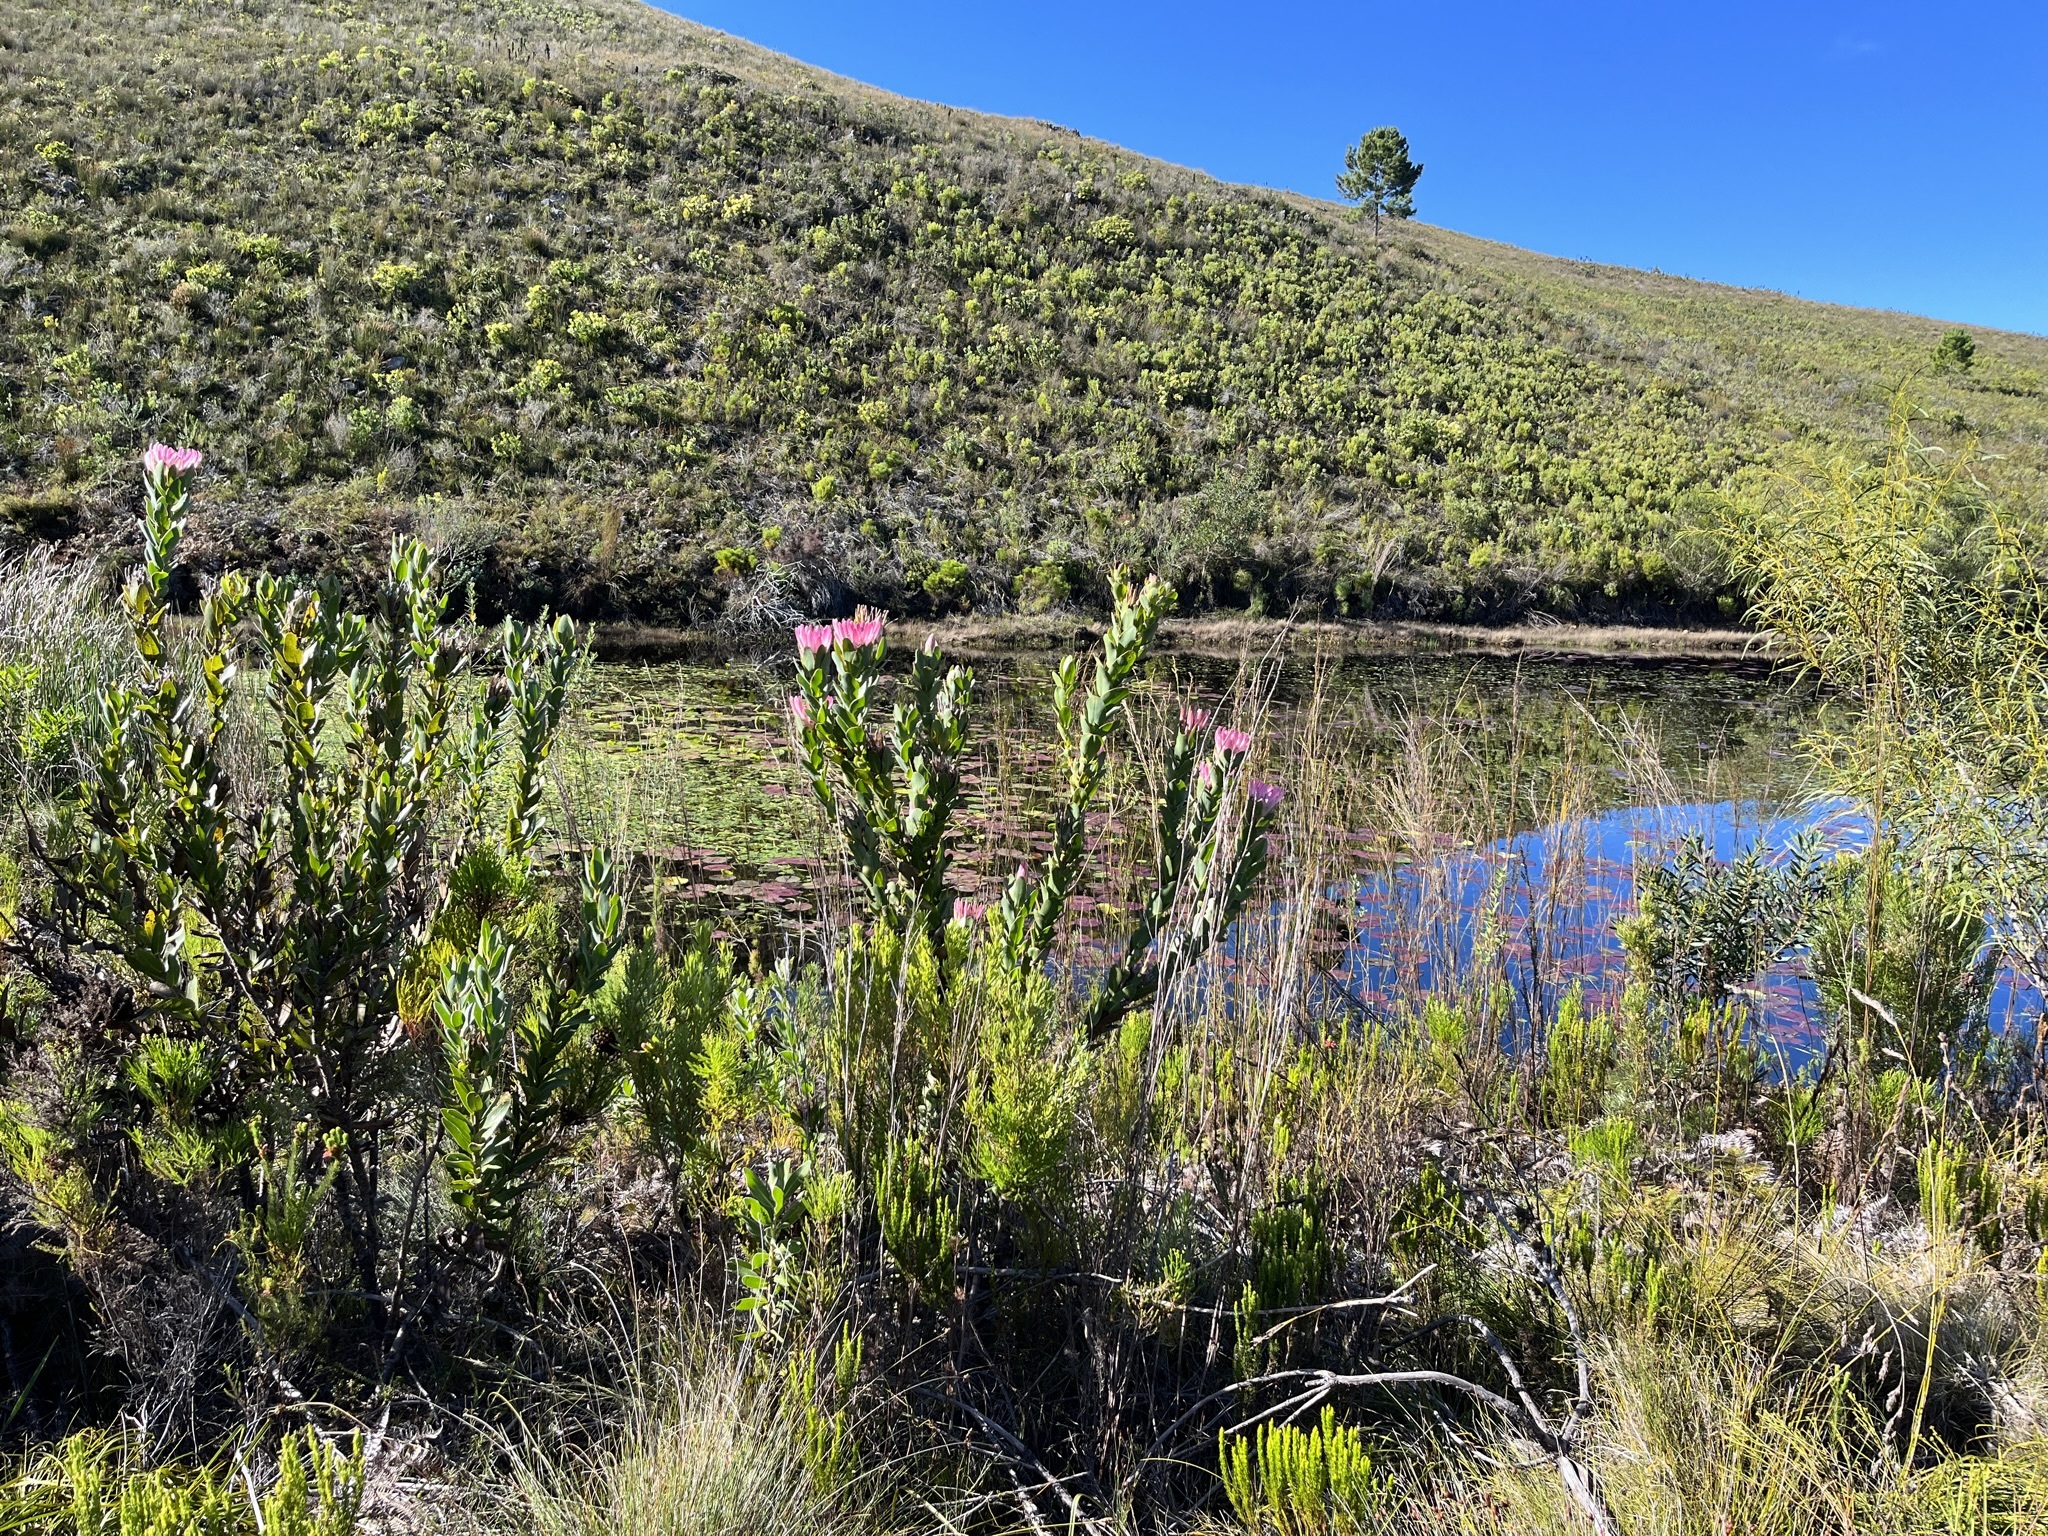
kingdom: Plantae
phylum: Tracheophyta
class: Magnoliopsida
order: Proteales
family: Proteaceae
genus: Protea
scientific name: Protea compacta
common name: Bot river protea
